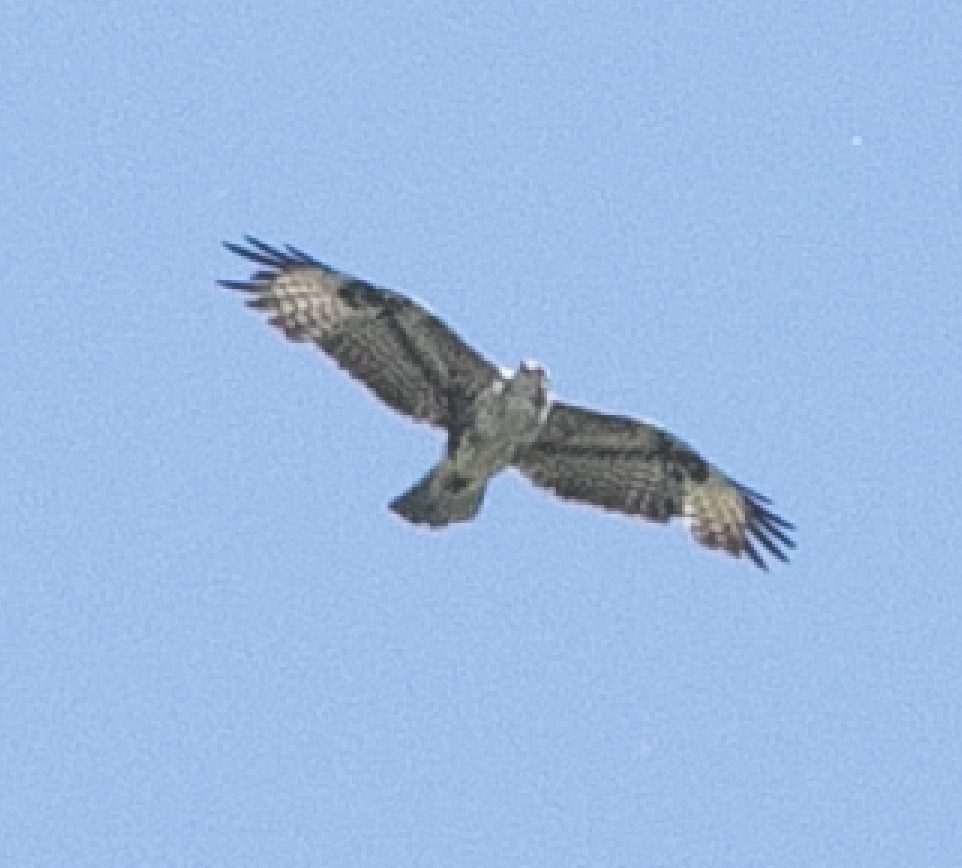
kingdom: Animalia
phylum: Chordata
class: Aves
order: Accipitriformes
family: Accipitridae
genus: Buteo
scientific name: Buteo buteo
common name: Common buzzard
